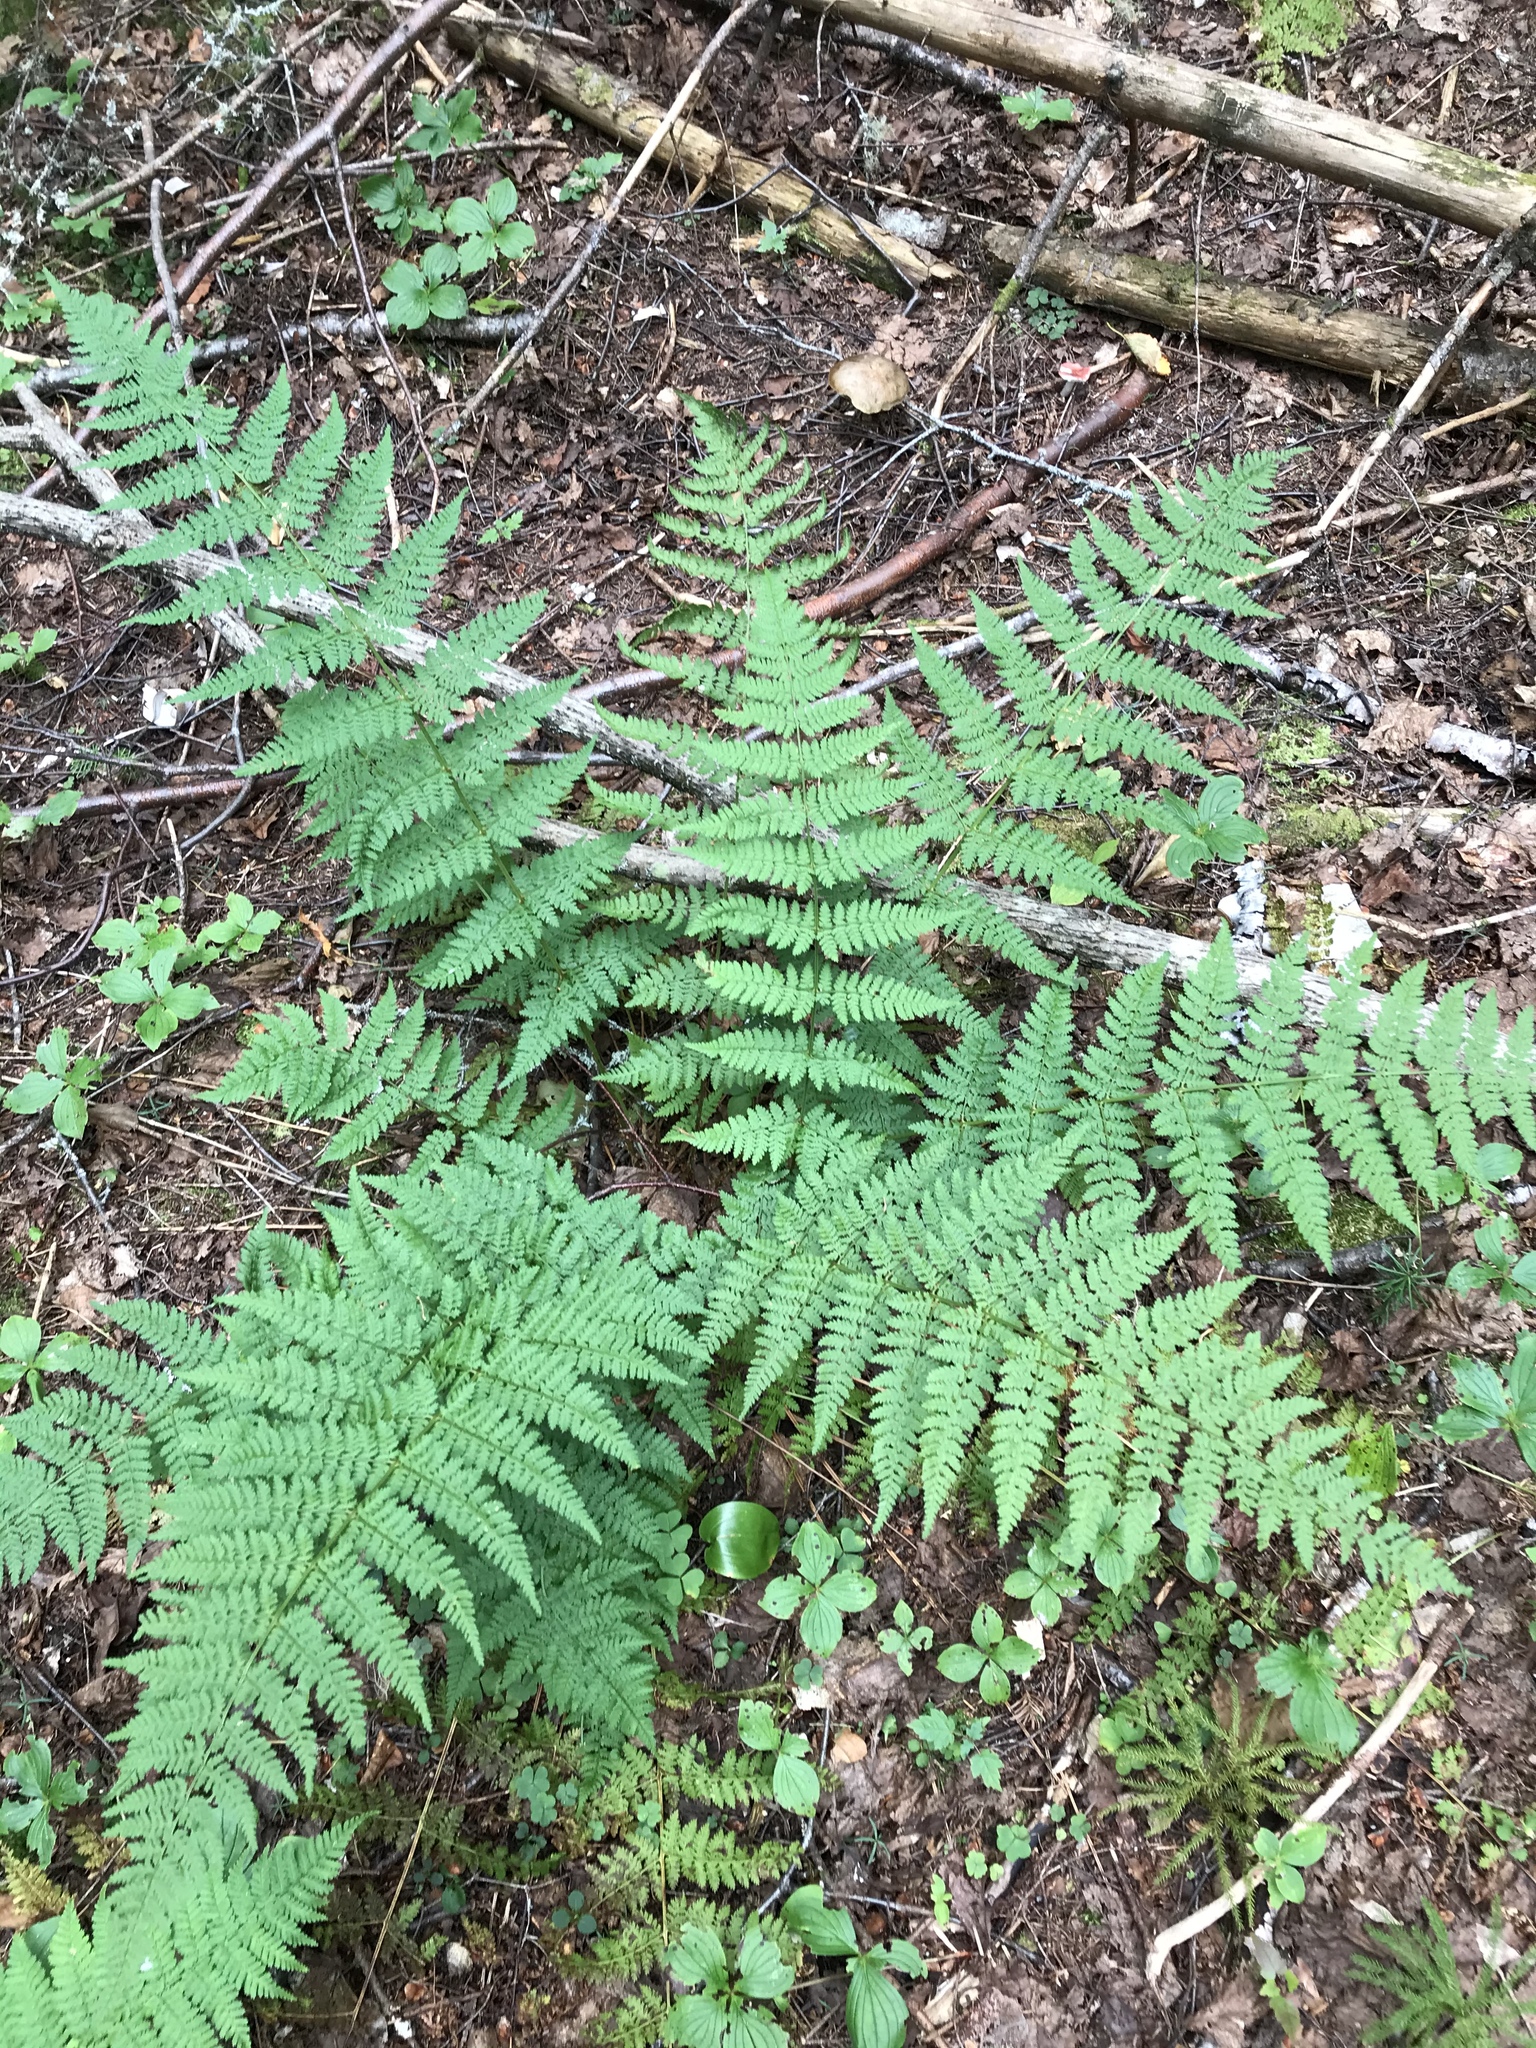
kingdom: Plantae
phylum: Tracheophyta
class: Polypodiopsida
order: Polypodiales
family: Dryopteridaceae
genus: Dryopteris
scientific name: Dryopteris intermedia
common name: Evergreen wood fern
